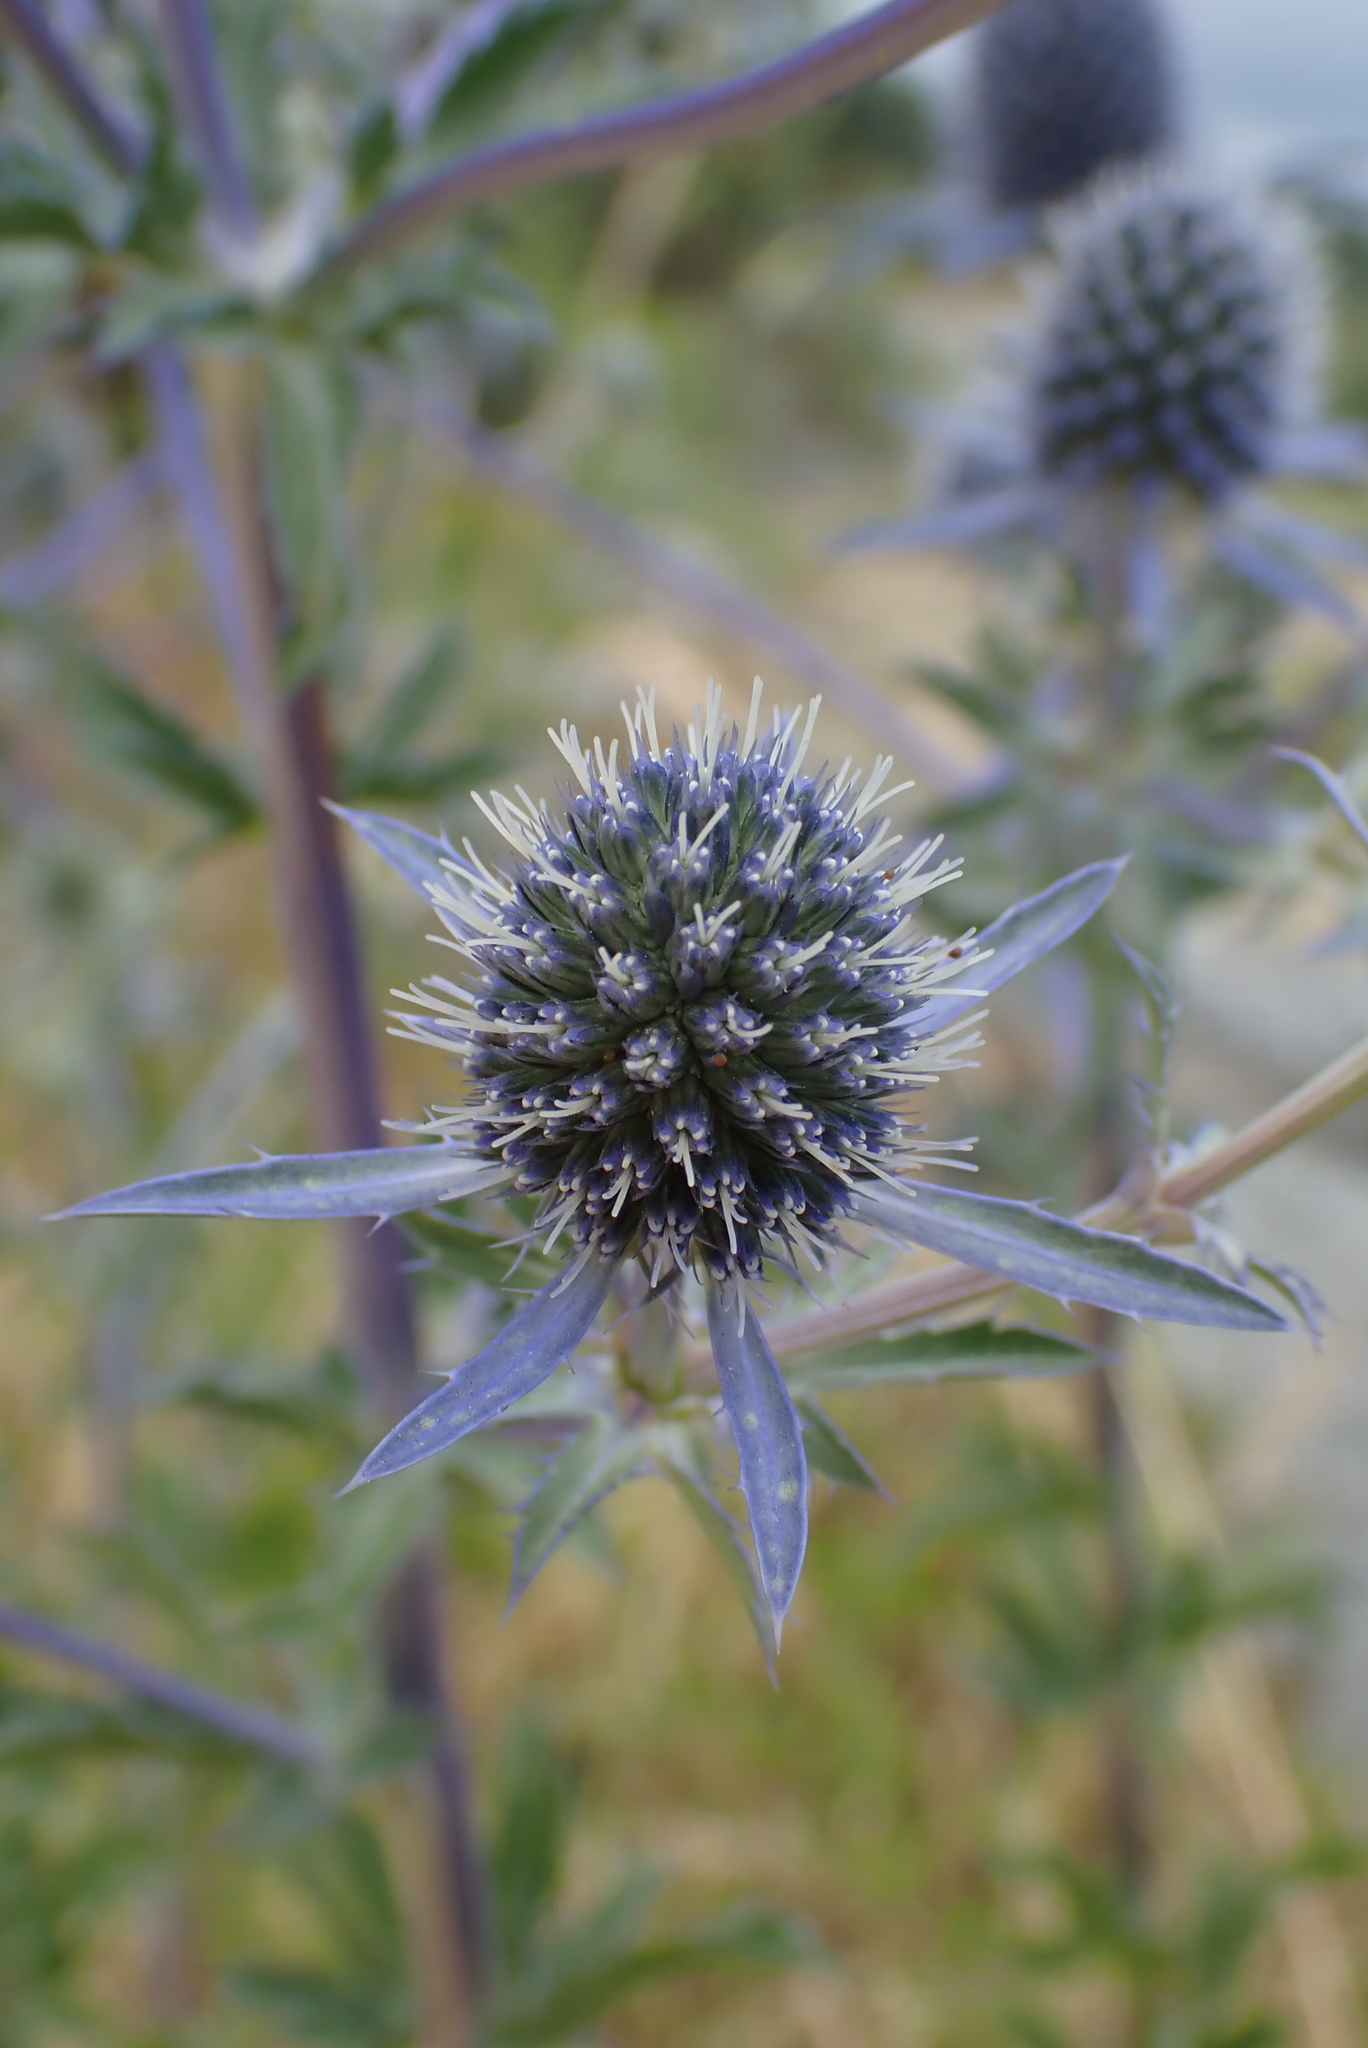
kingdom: Plantae
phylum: Tracheophyta
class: Magnoliopsida
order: Apiales
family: Apiaceae
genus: Eryngium
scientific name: Eryngium planum
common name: Blue eryngo
